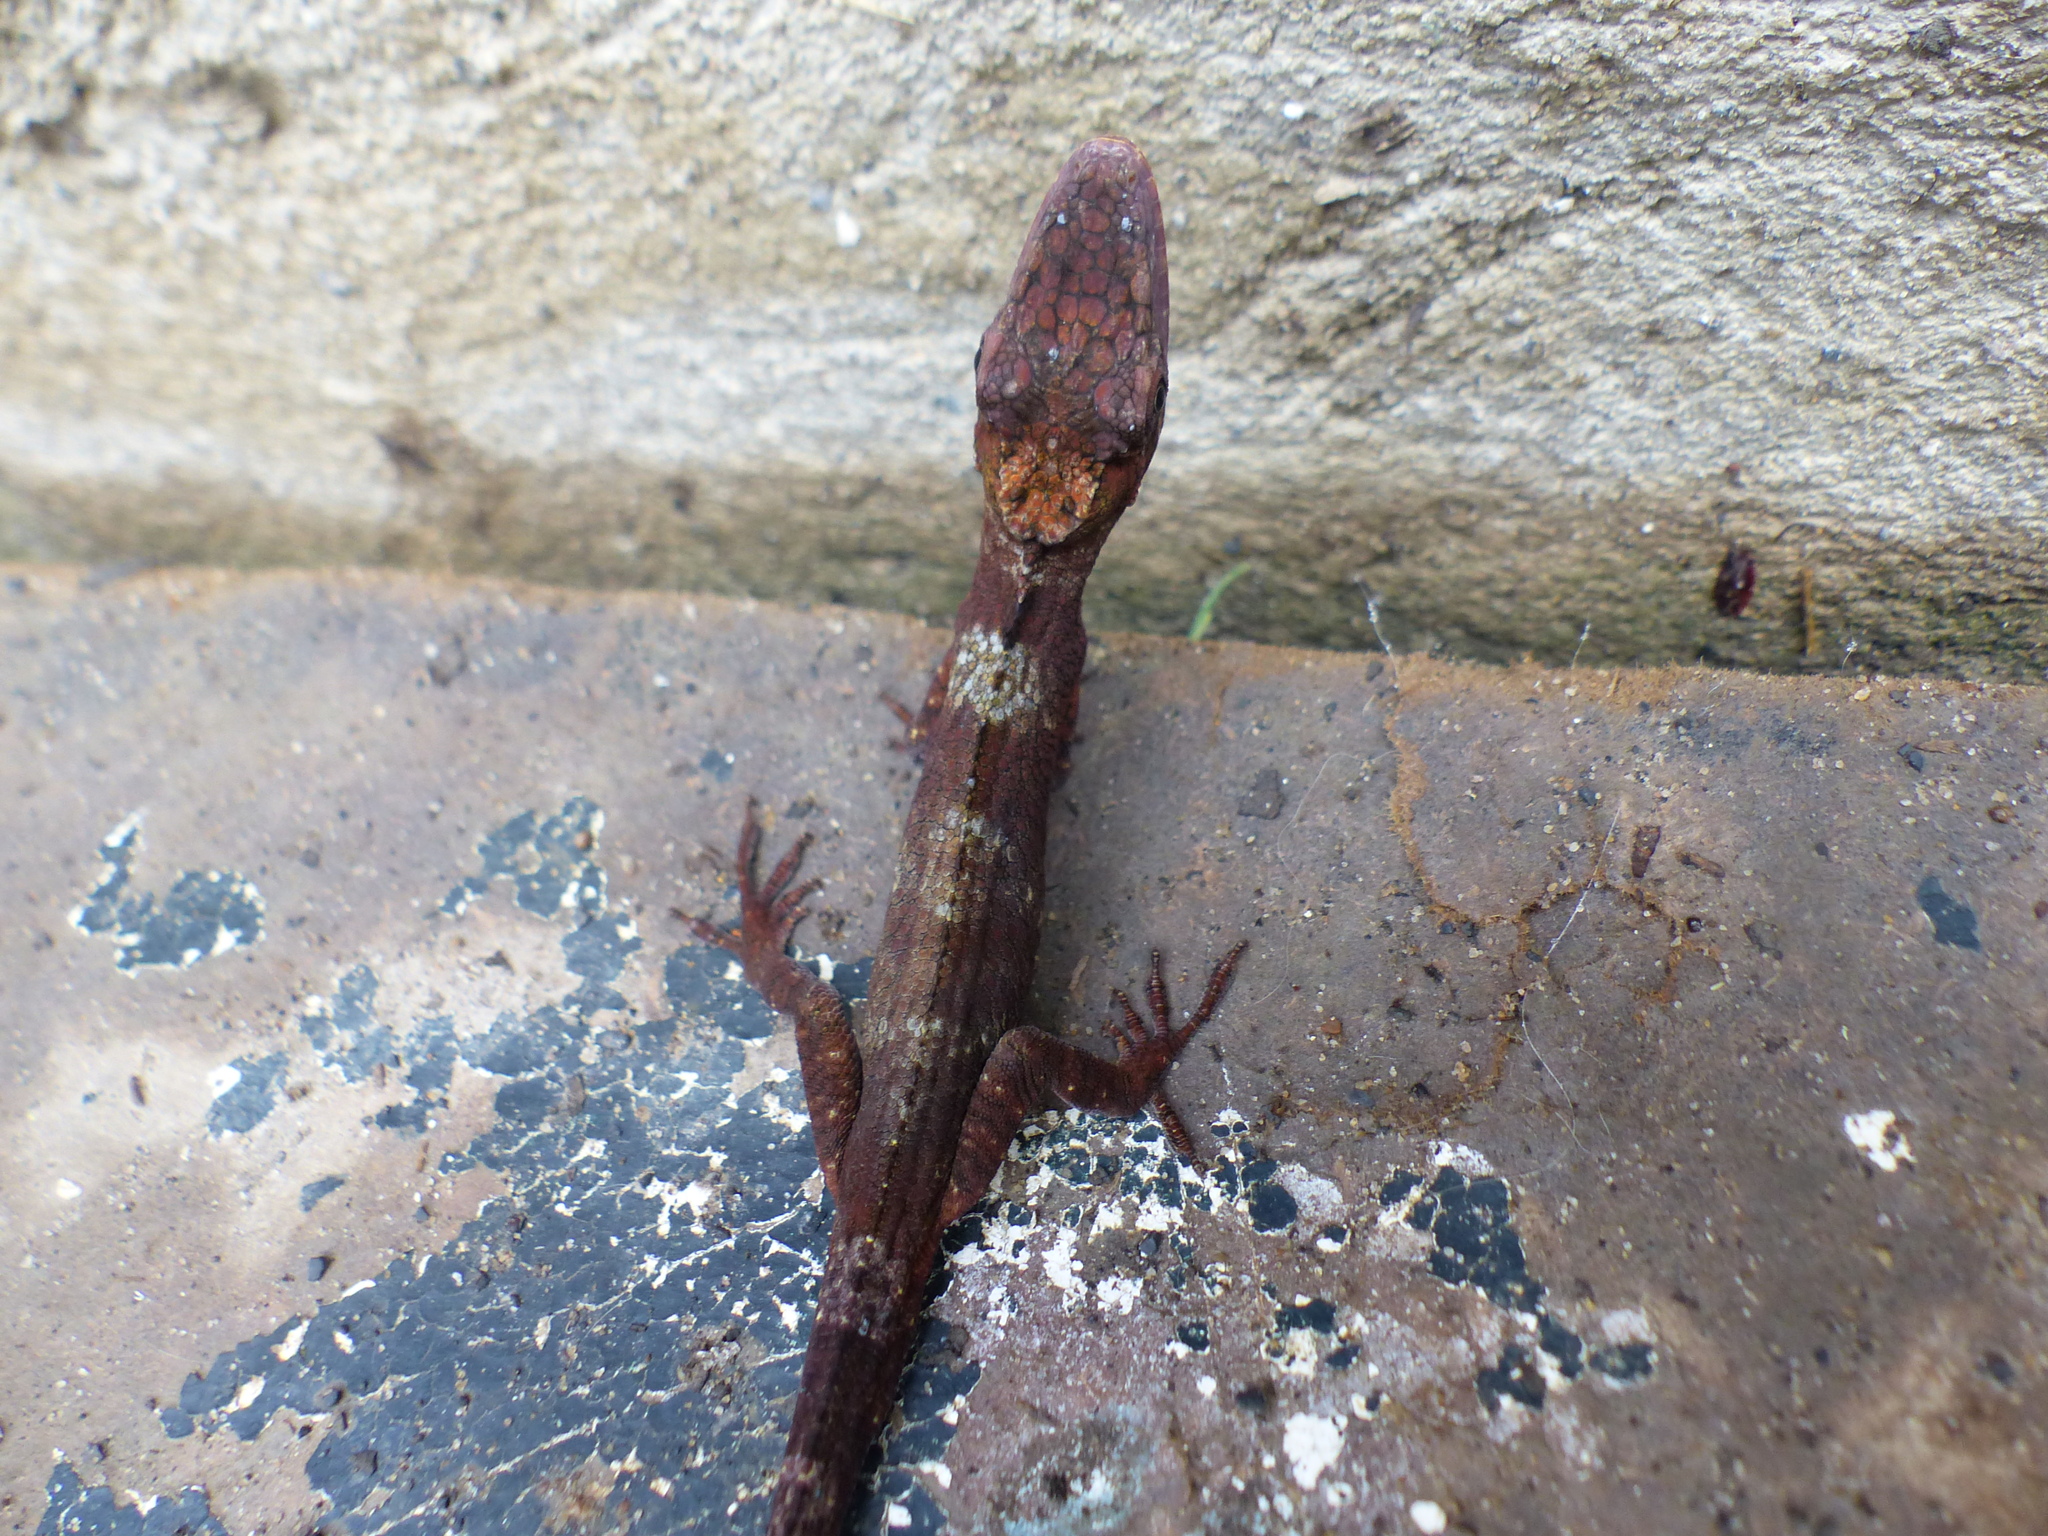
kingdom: Animalia
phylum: Chordata
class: Squamata
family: Dactyloidae
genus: Anolis
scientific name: Anolis richteri
